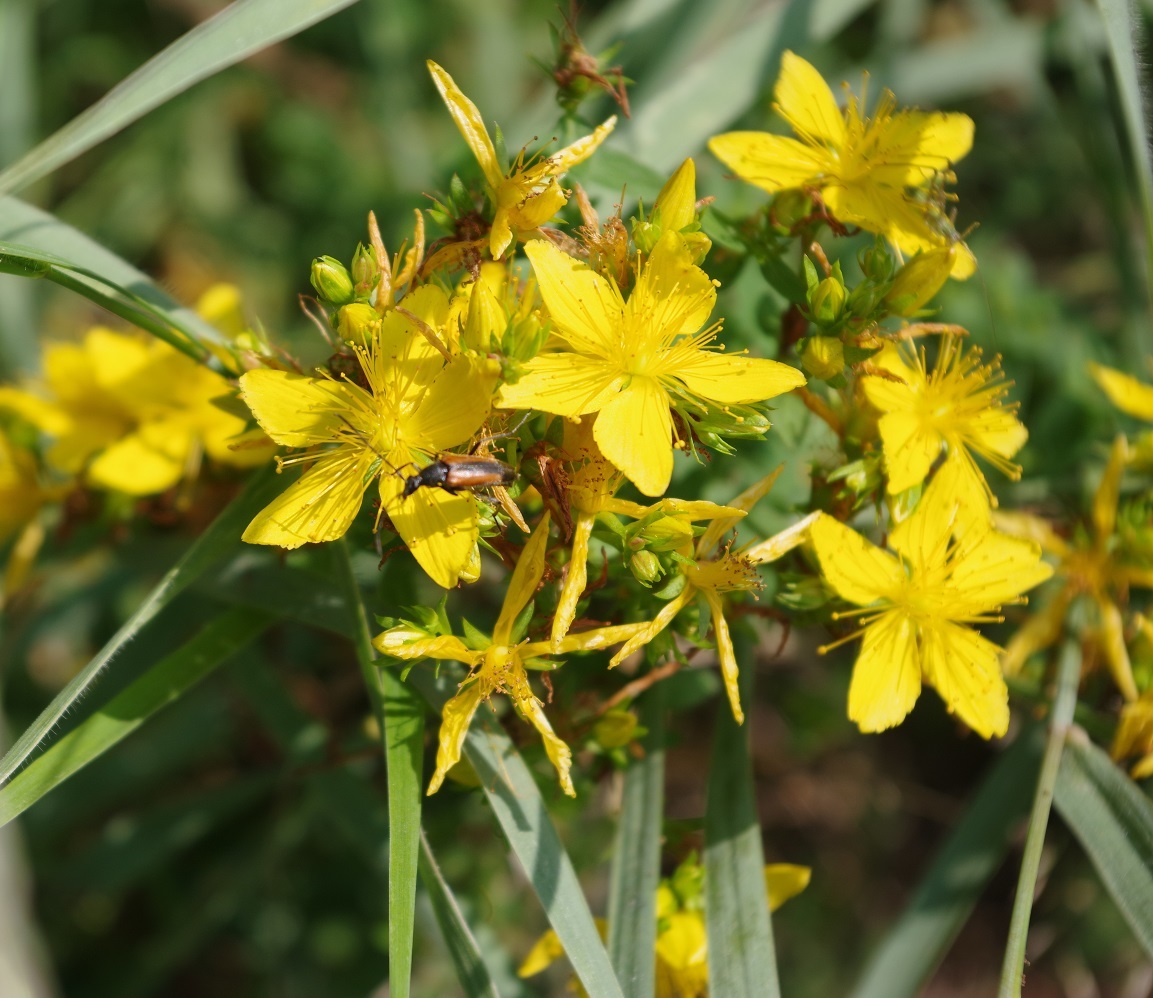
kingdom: Plantae
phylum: Tracheophyta
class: Magnoliopsida
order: Malpighiales
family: Hypericaceae
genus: Hypericum
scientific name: Hypericum perforatum
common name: Common st. johnswort
